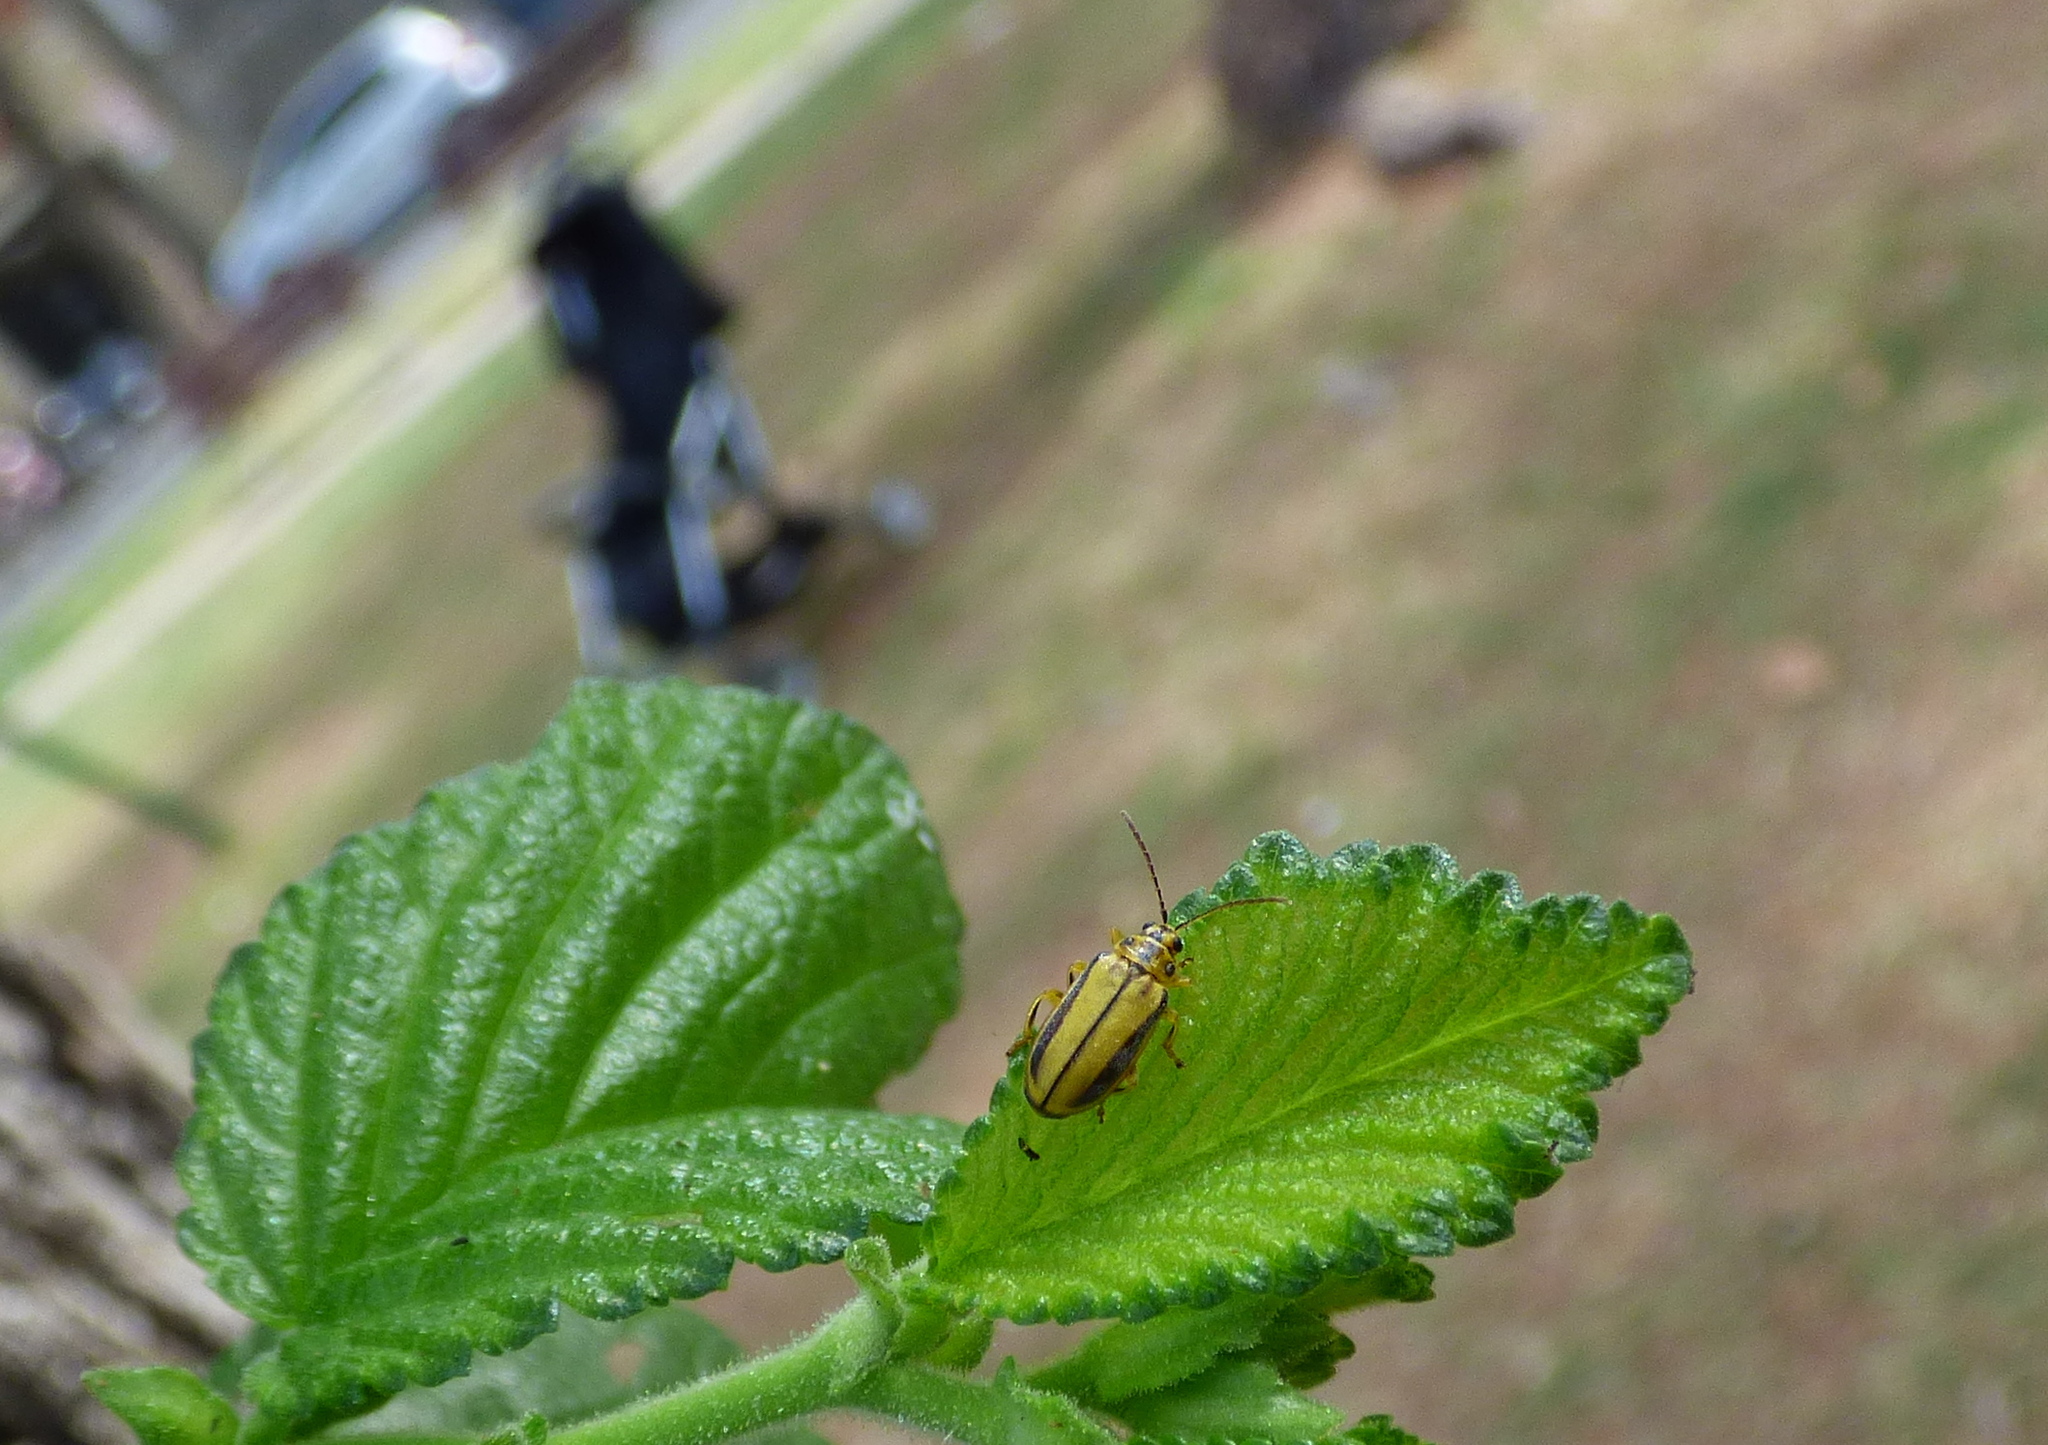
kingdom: Animalia
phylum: Arthropoda
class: Insecta
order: Coleoptera
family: Chrysomelidae
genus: Xanthogaleruca
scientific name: Xanthogaleruca luteola
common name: Elm leaf beetle
